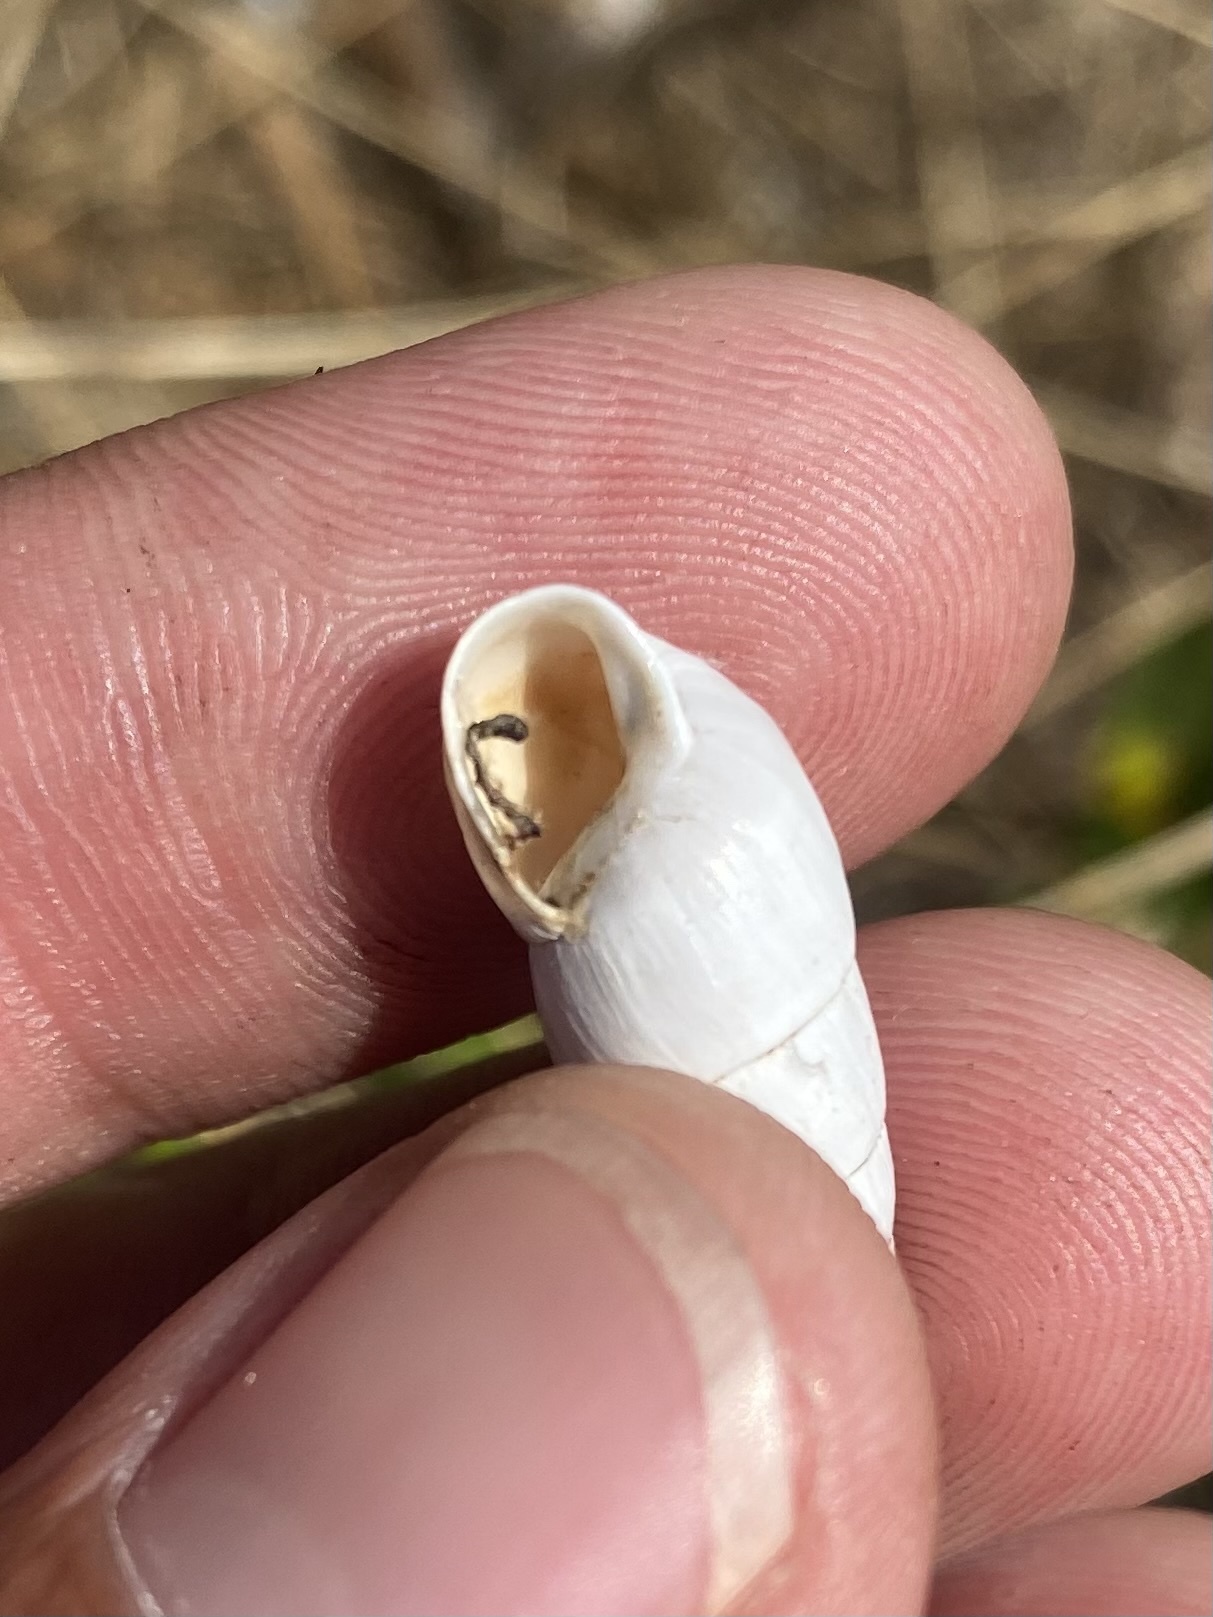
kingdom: Animalia
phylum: Mollusca
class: Gastropoda
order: Stylommatophora
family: Enidae
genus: Brephulopsis
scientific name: Brephulopsis cylindrica
